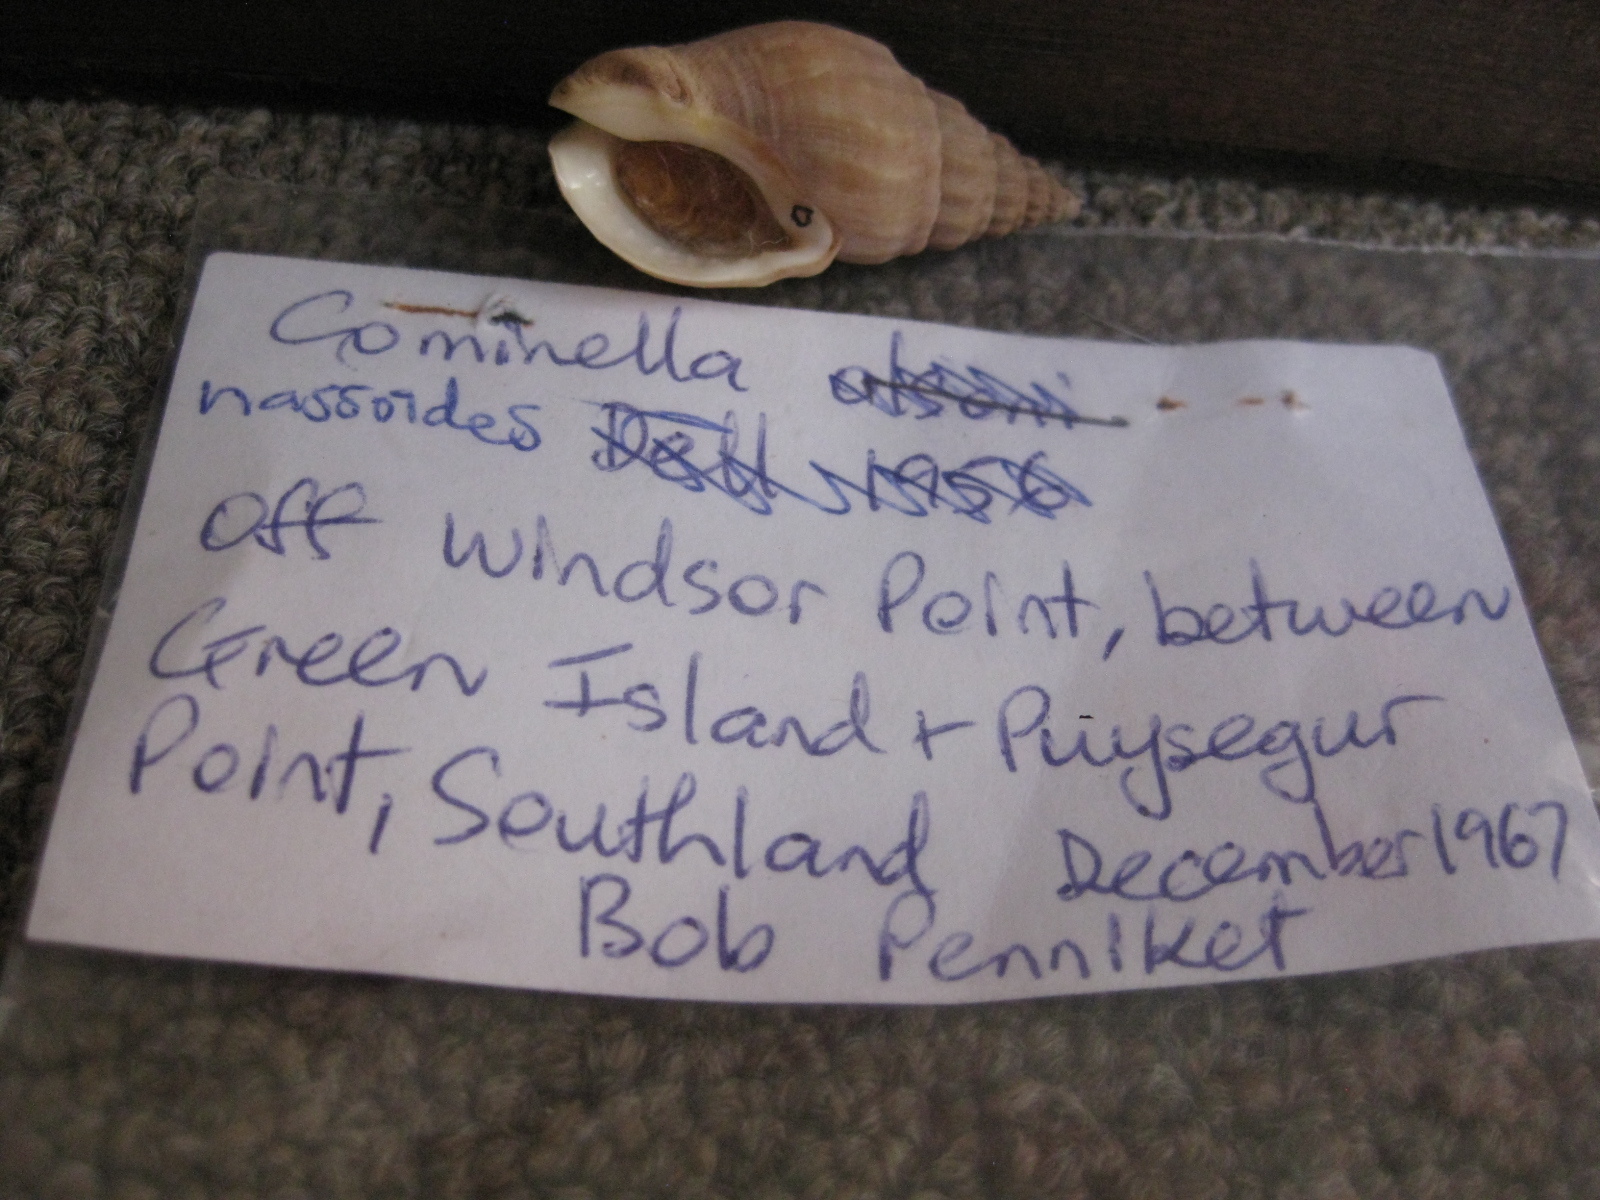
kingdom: Animalia
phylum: Mollusca
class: Gastropoda
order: Neogastropoda
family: Cominellidae
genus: Cominella
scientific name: Cominella nassoides
